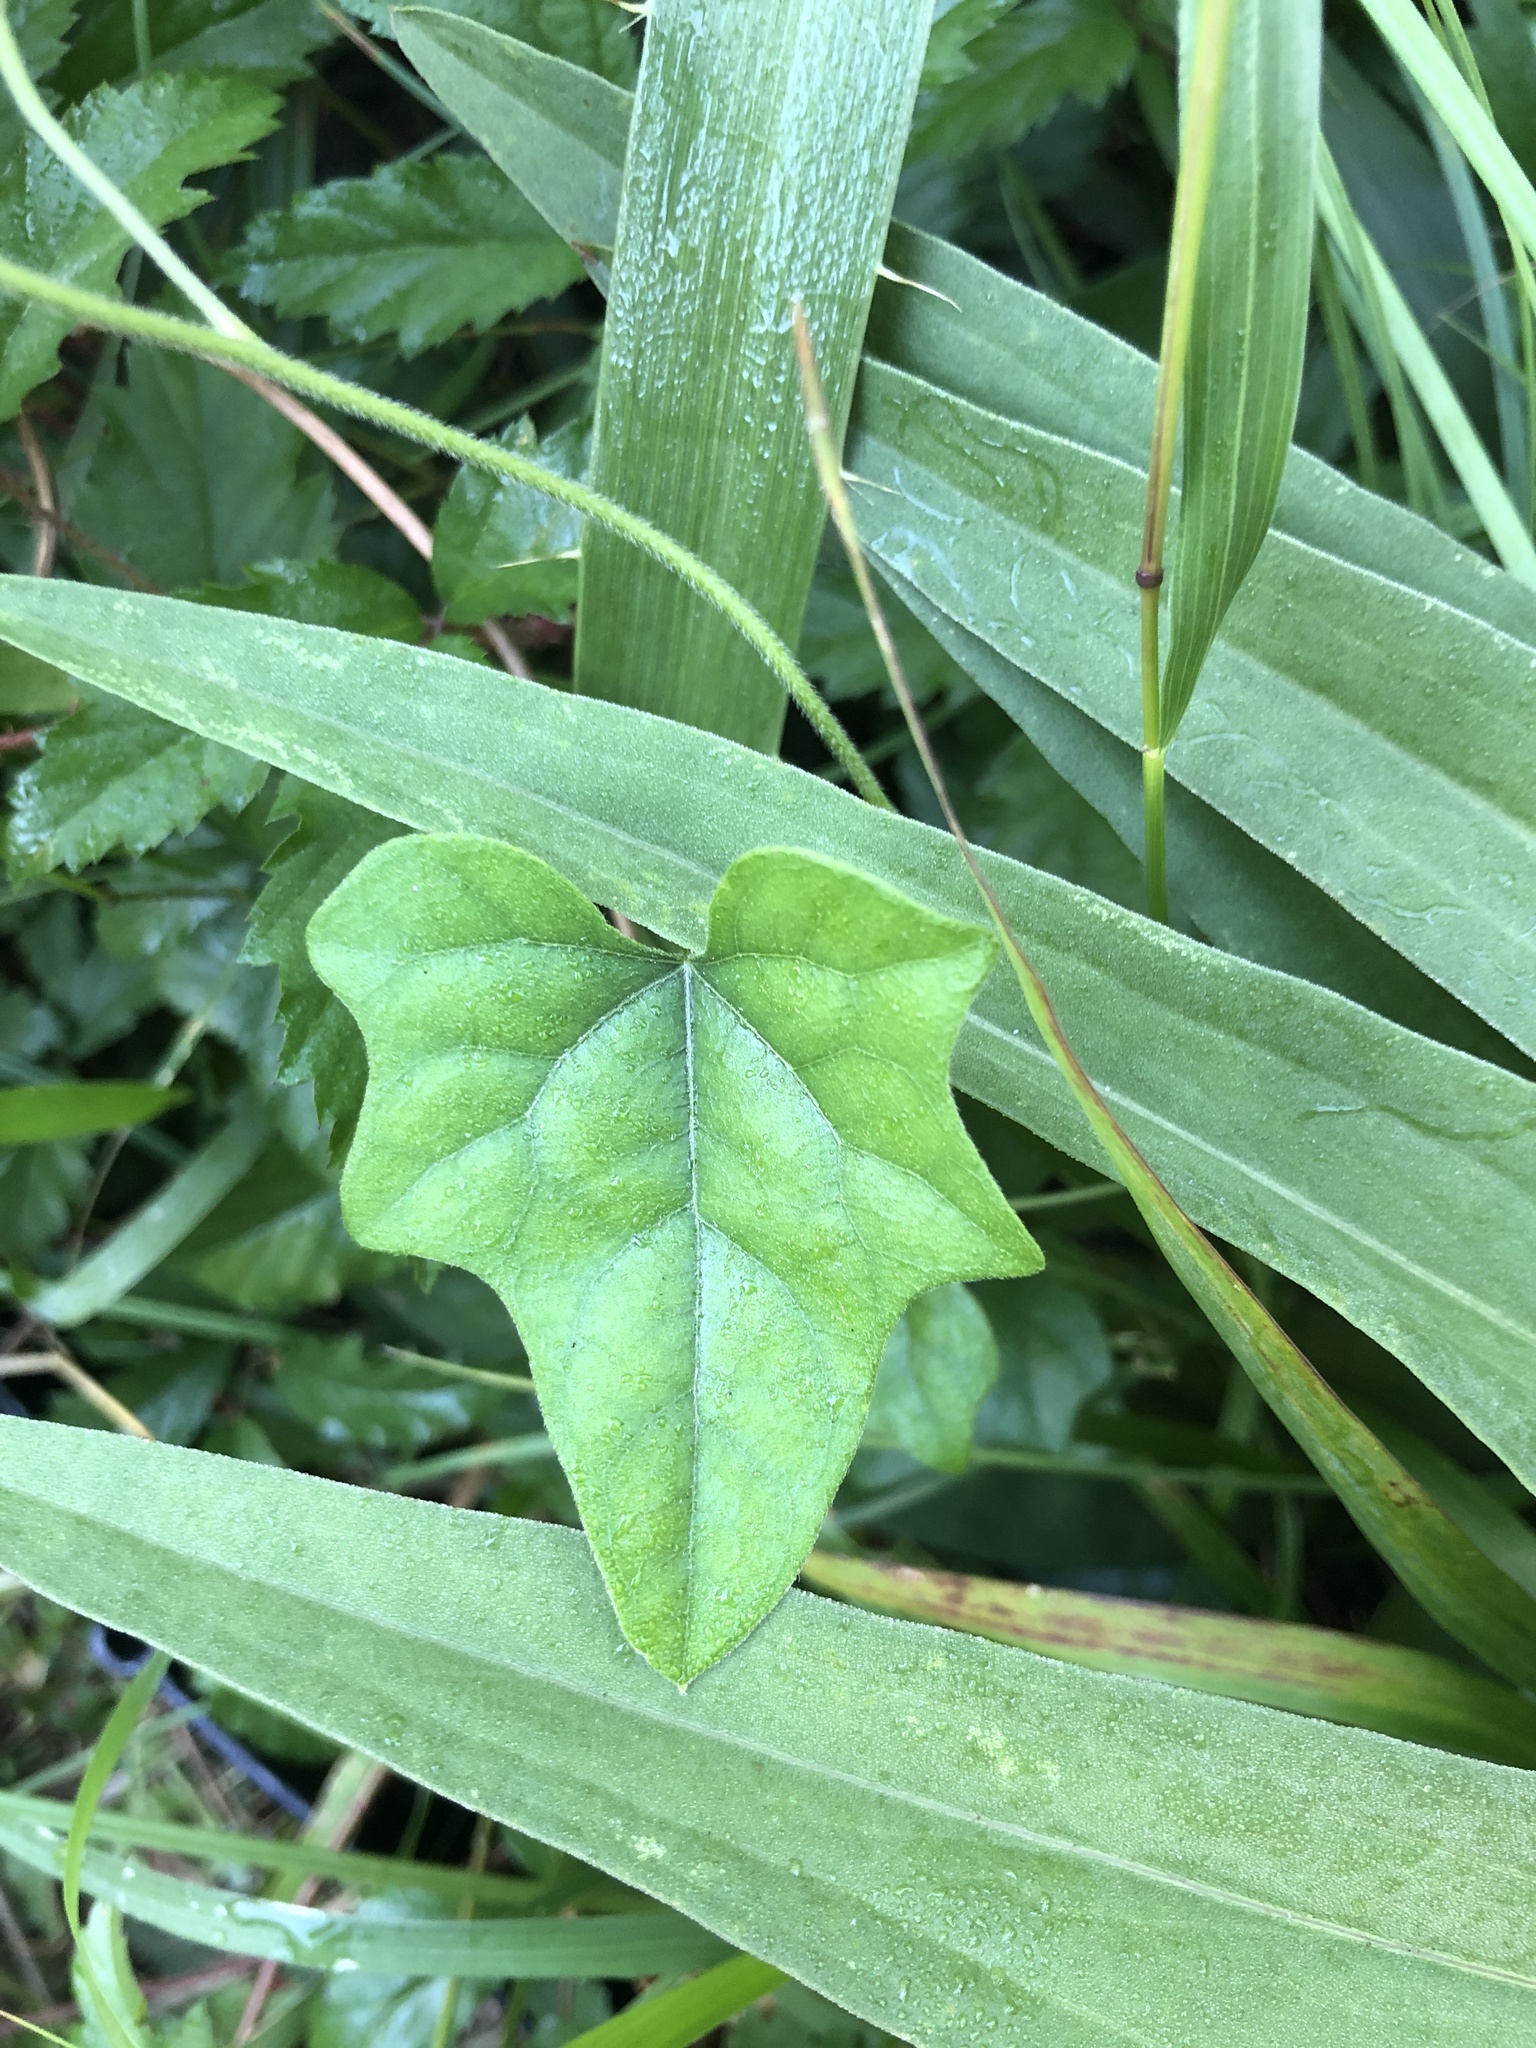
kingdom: Plantae
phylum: Tracheophyta
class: Magnoliopsida
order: Ranunculales
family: Menispermaceae
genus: Cocculus
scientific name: Cocculus carolinus
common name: Carolina moonseed
